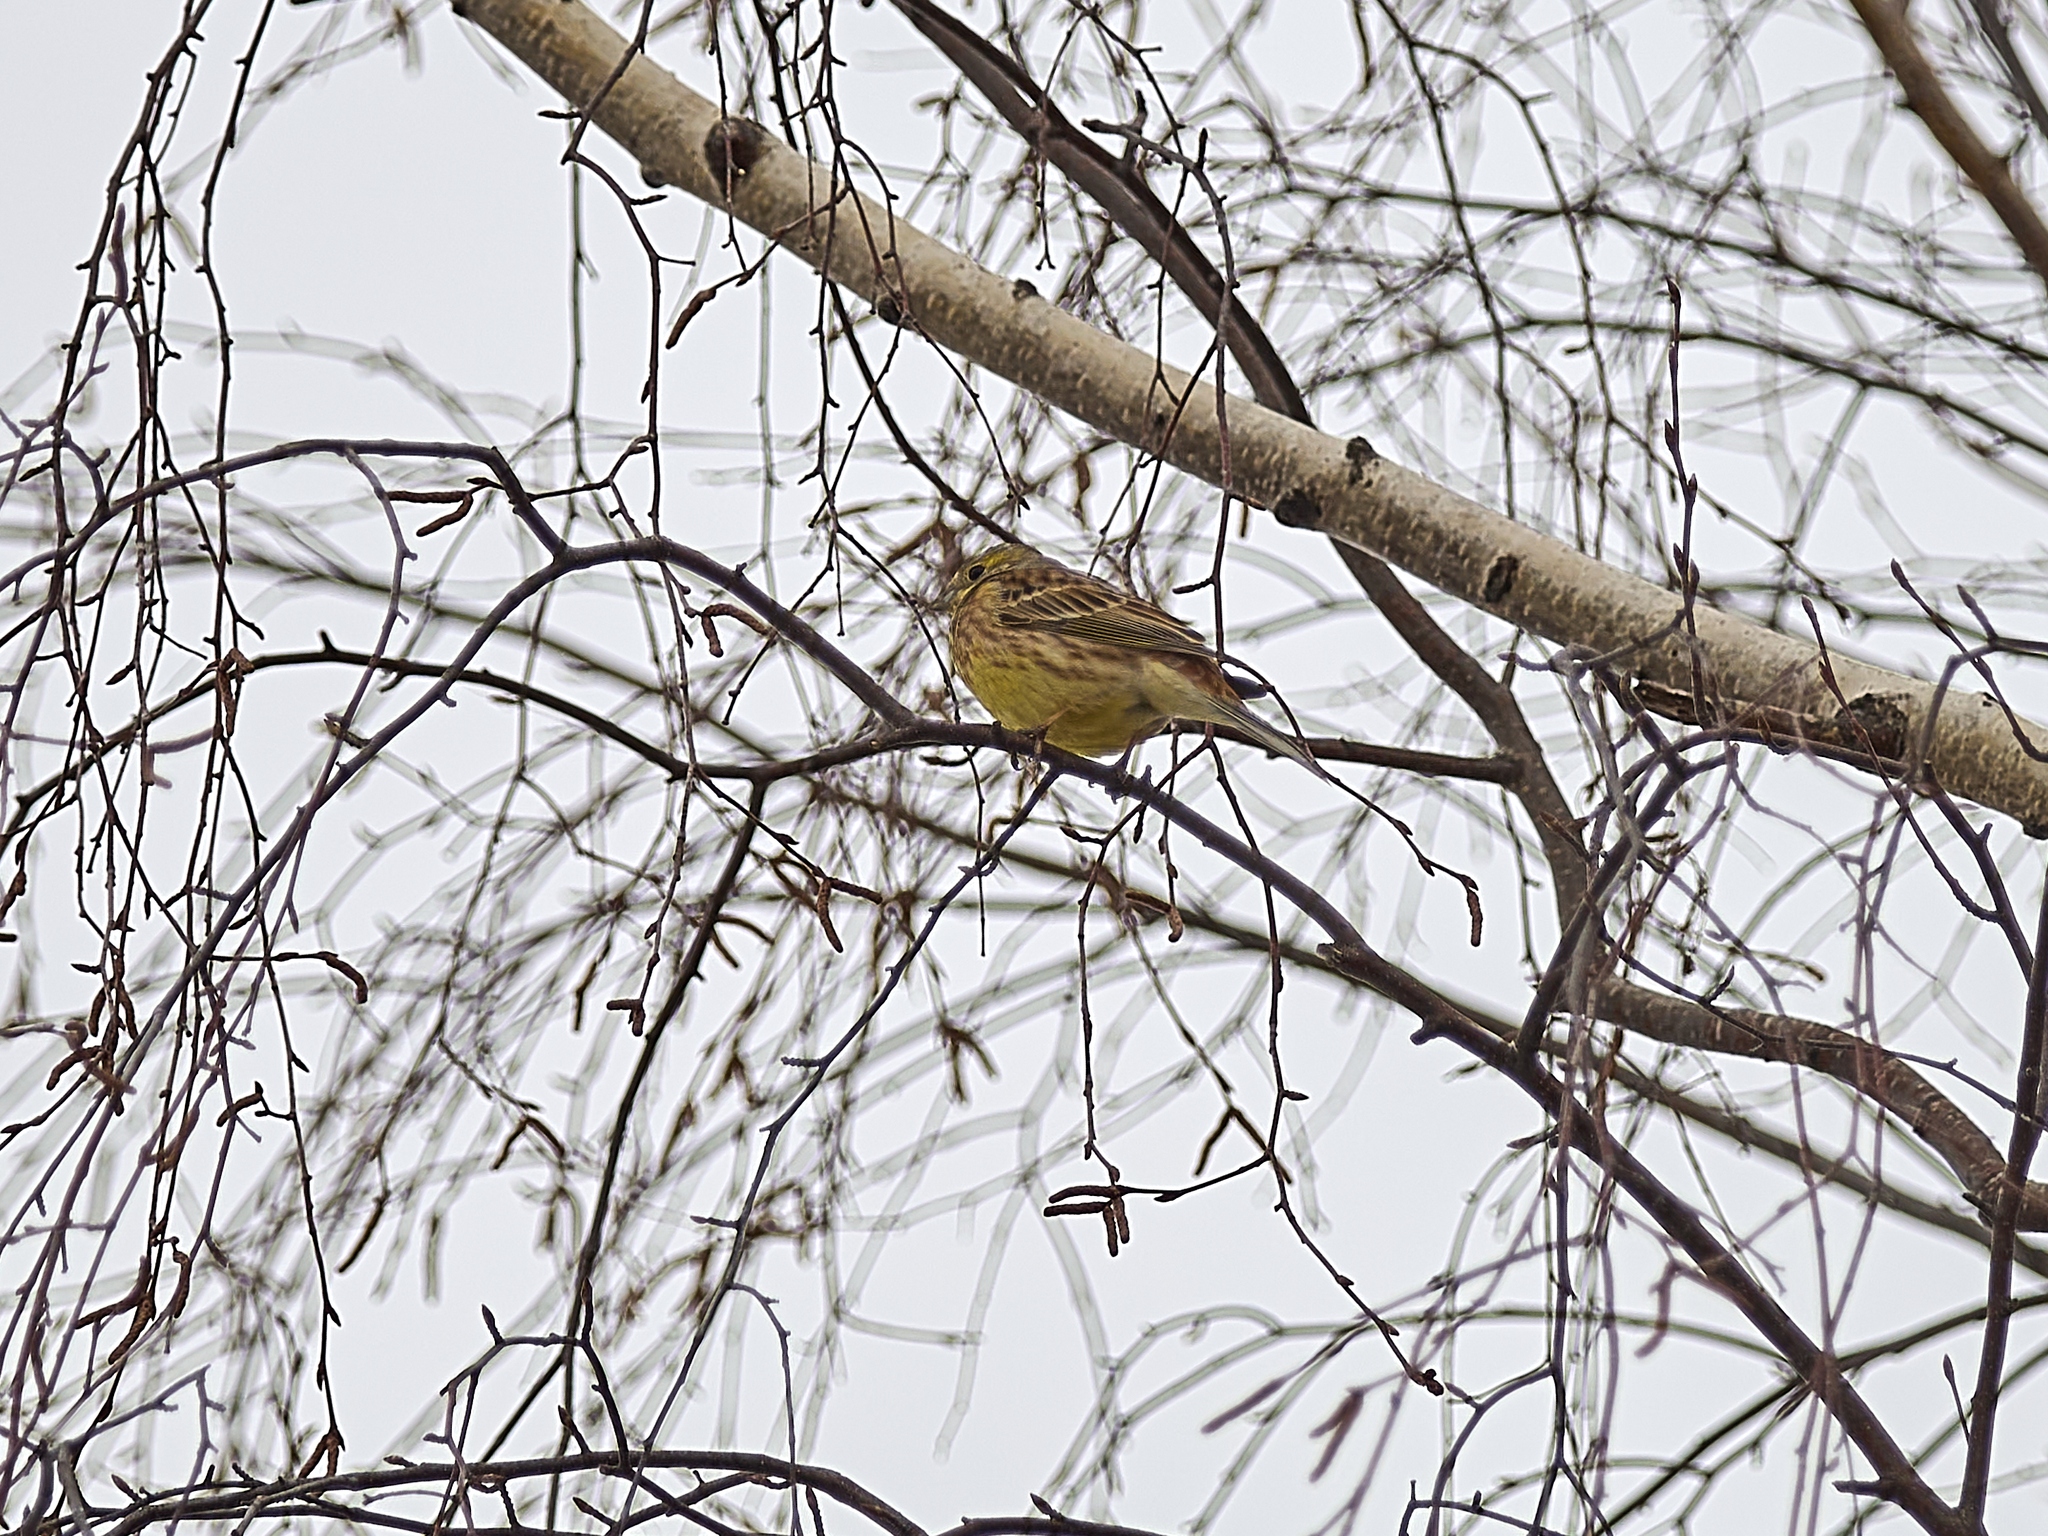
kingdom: Animalia
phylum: Chordata
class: Aves
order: Passeriformes
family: Emberizidae
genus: Emberiza
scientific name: Emberiza citrinella
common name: Yellowhammer
